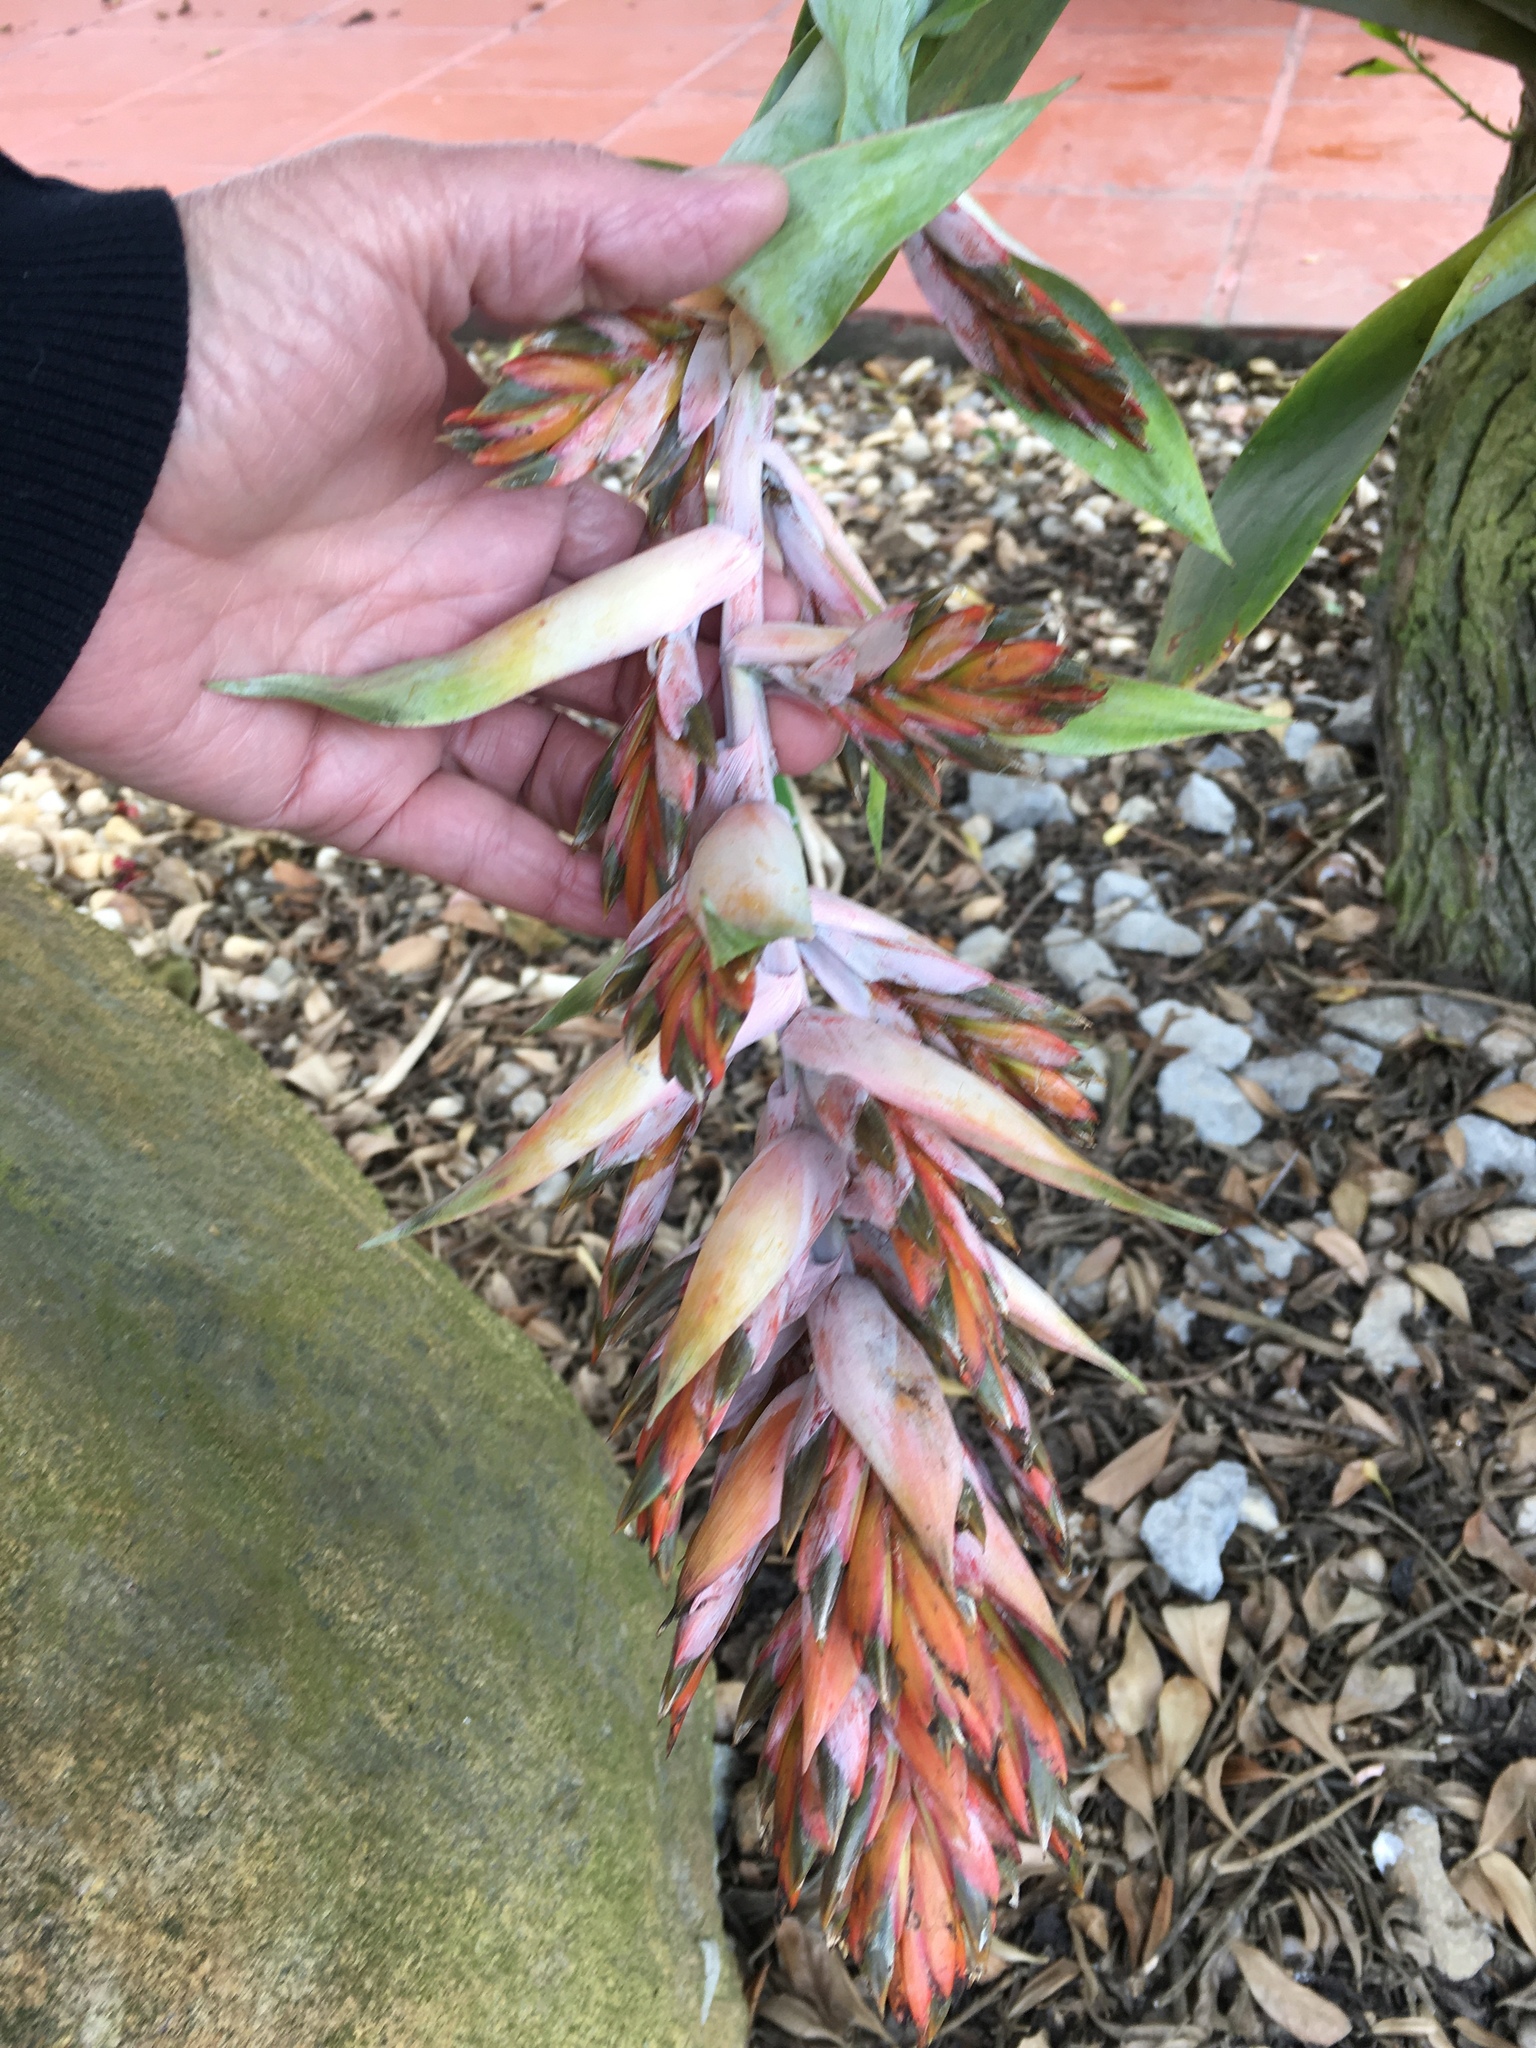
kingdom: Plantae
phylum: Tracheophyta
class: Liliopsida
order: Poales
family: Bromeliaceae
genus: Tillandsia
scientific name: Tillandsia biflora
